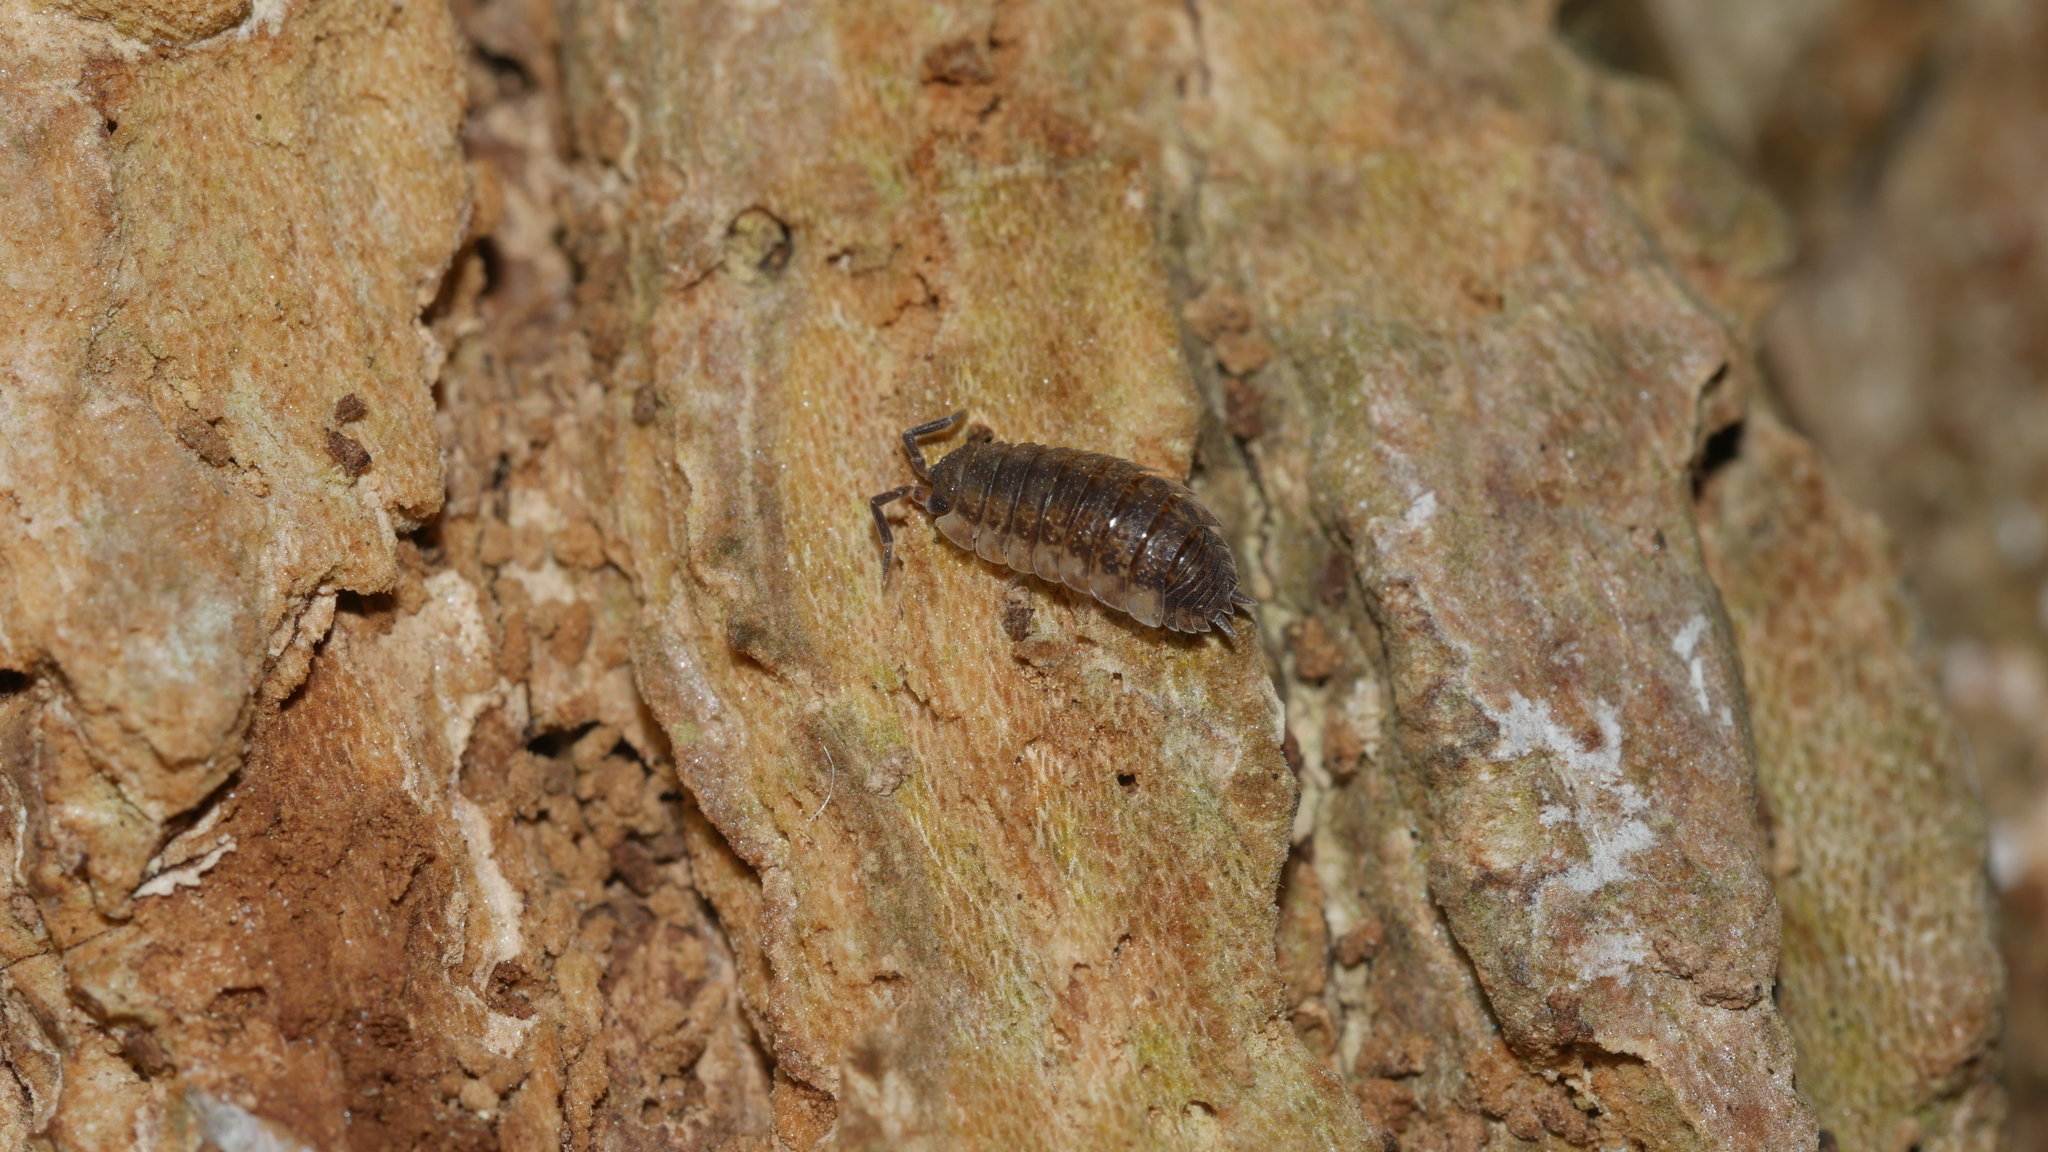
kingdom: Animalia
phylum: Arthropoda
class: Malacostraca
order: Isopoda
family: Porcellionidae
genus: Porcellio
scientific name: Porcellio scaber
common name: Common rough woodlouse
